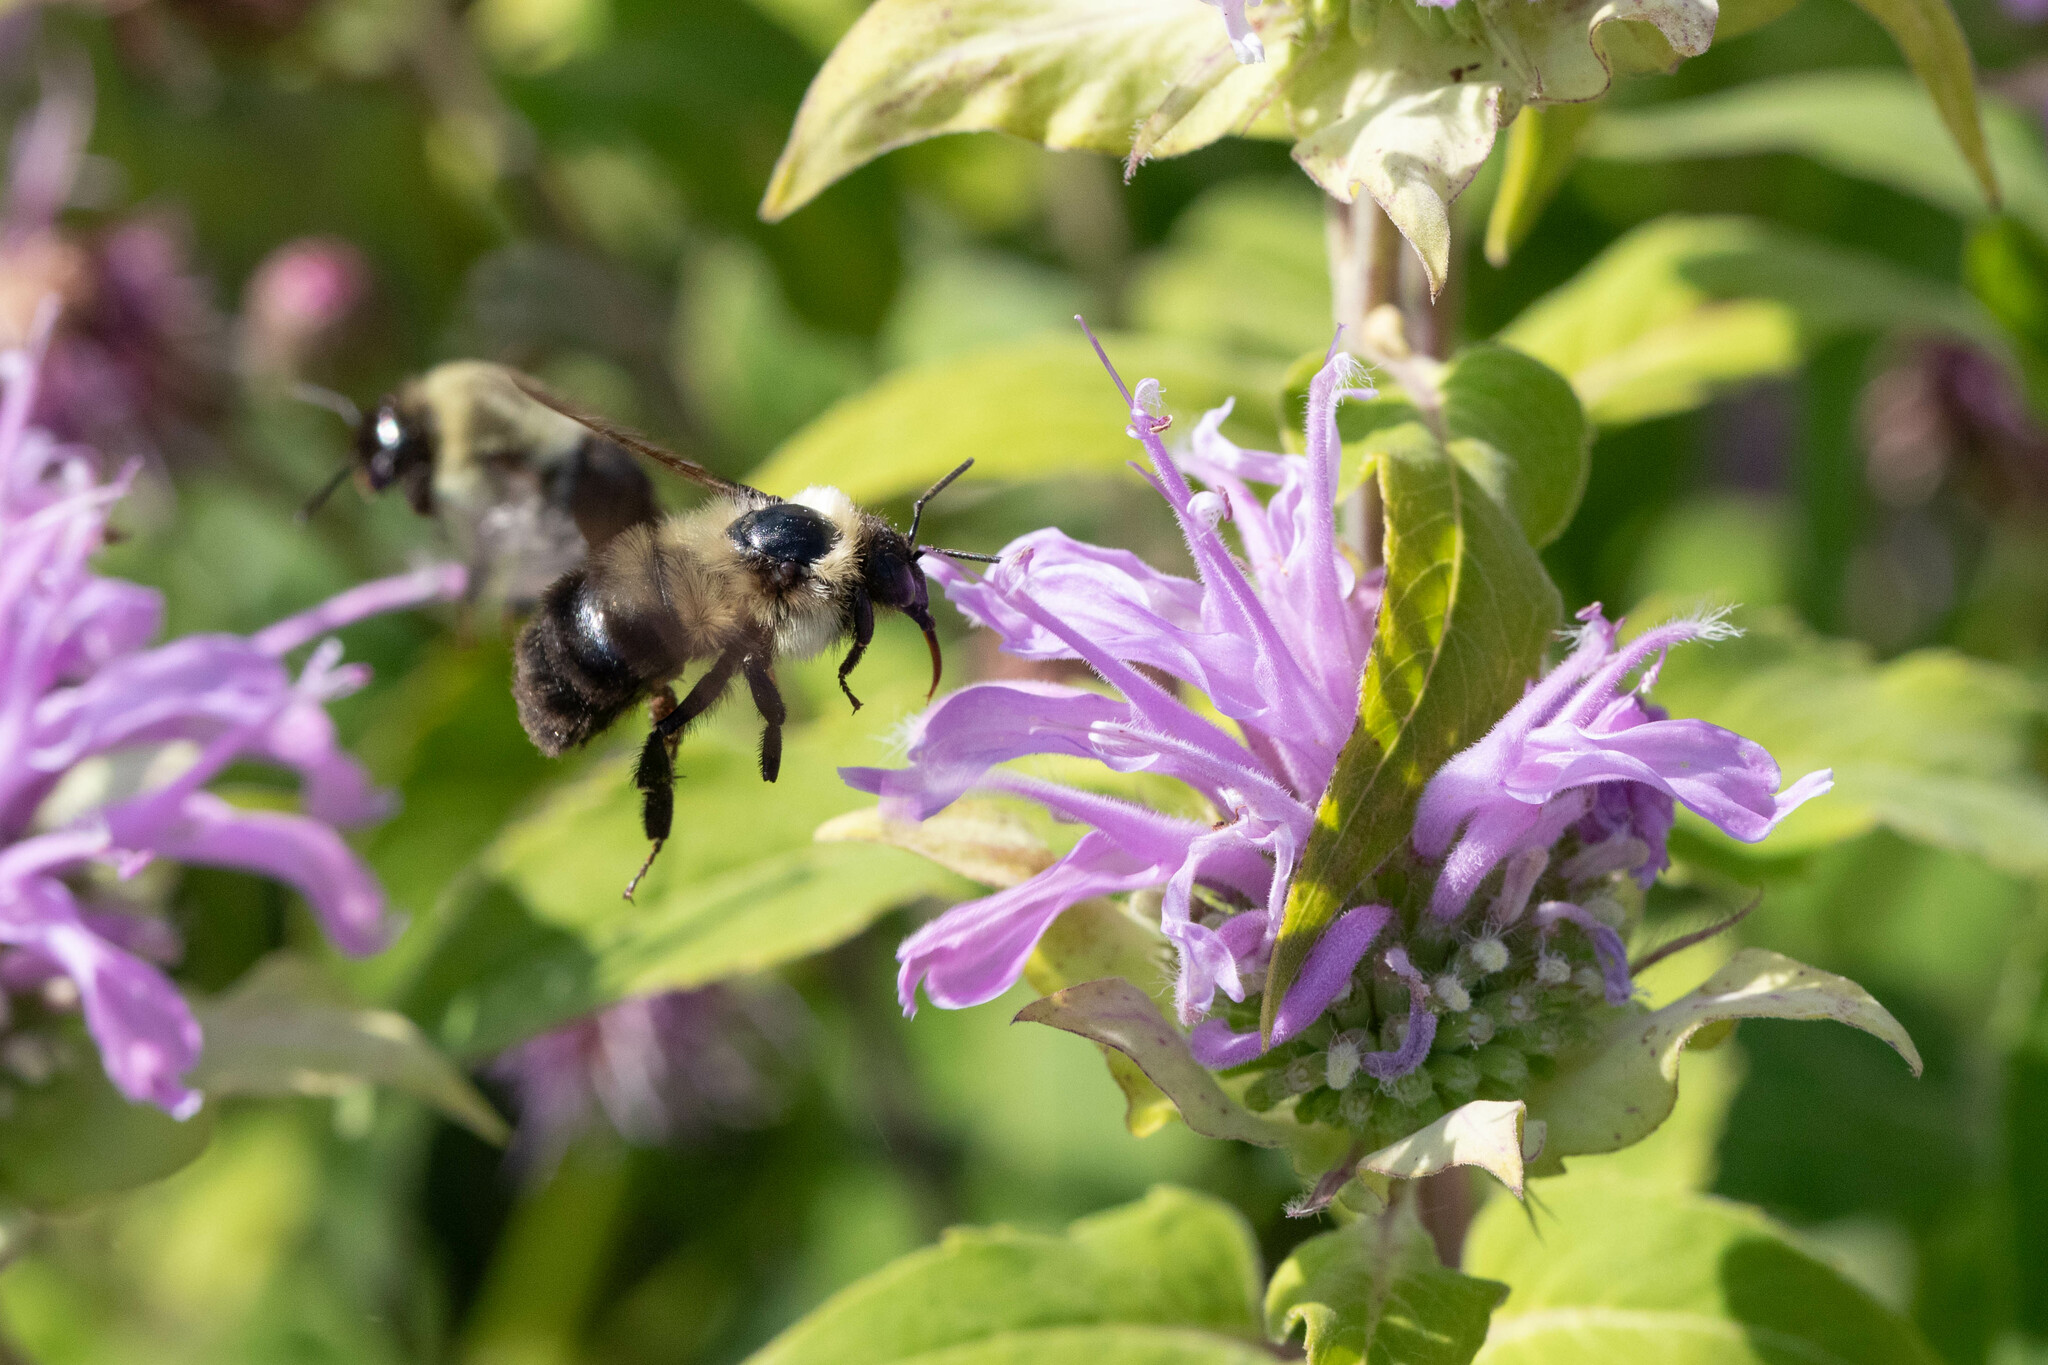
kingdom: Animalia
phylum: Arthropoda
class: Insecta
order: Hymenoptera
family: Apidae
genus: Bombus
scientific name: Bombus bimaculatus
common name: Two-spotted bumble bee
